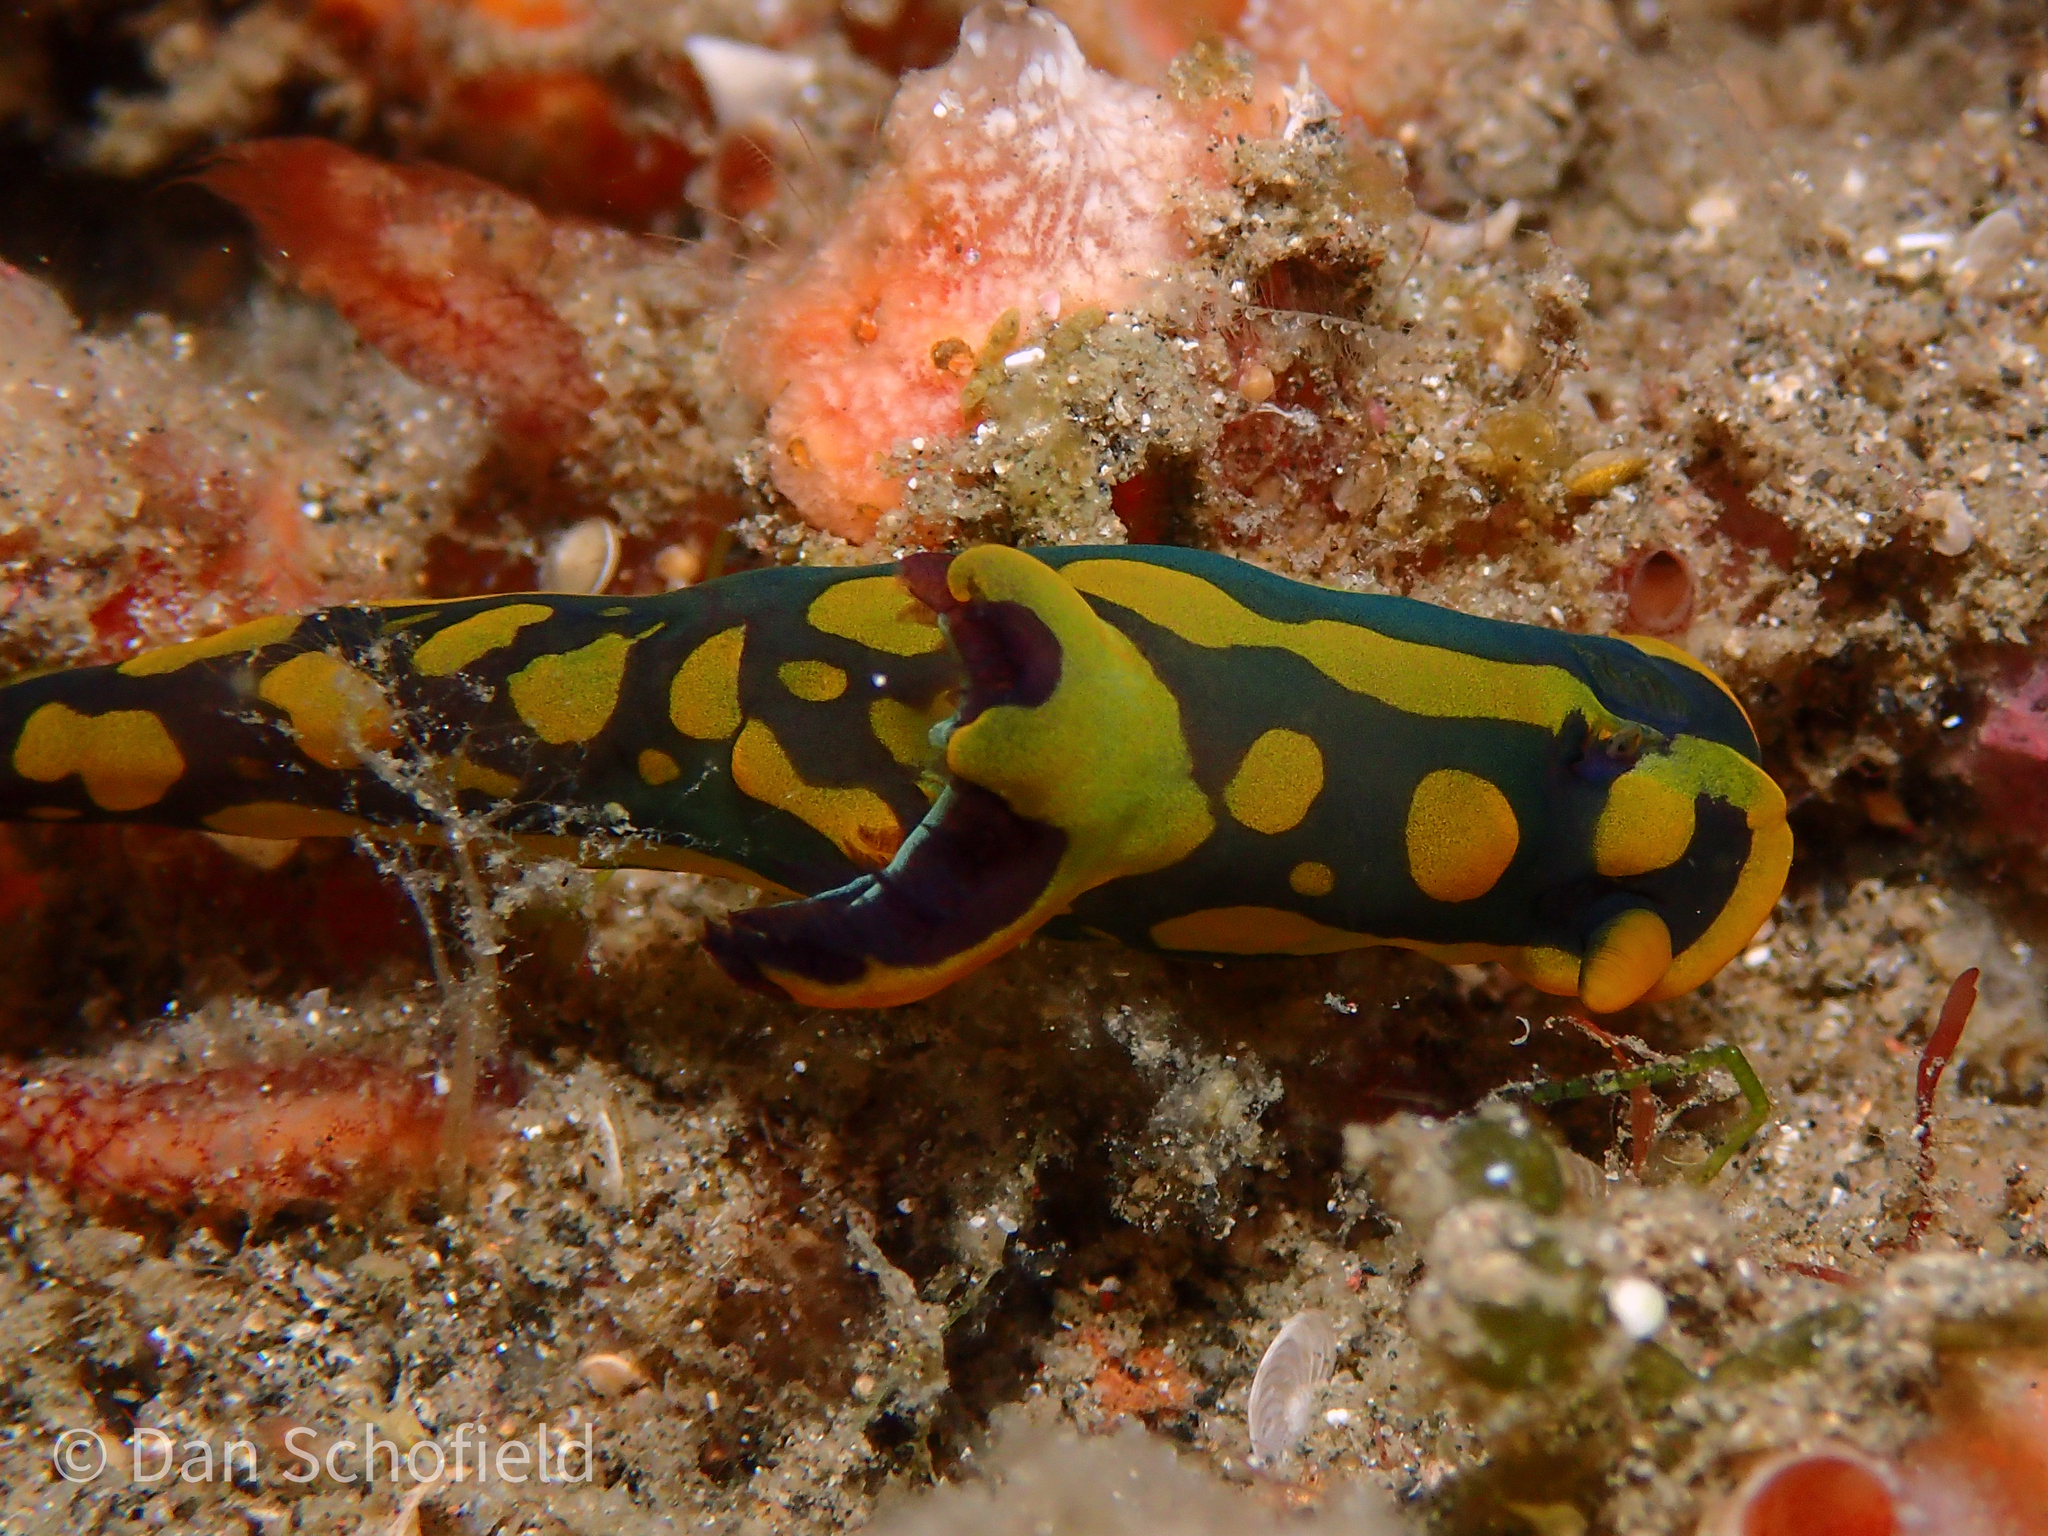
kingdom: Animalia
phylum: Mollusca
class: Gastropoda
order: Nudibranchia
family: Polyceridae
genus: Tambja
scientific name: Tambja gabrielae
